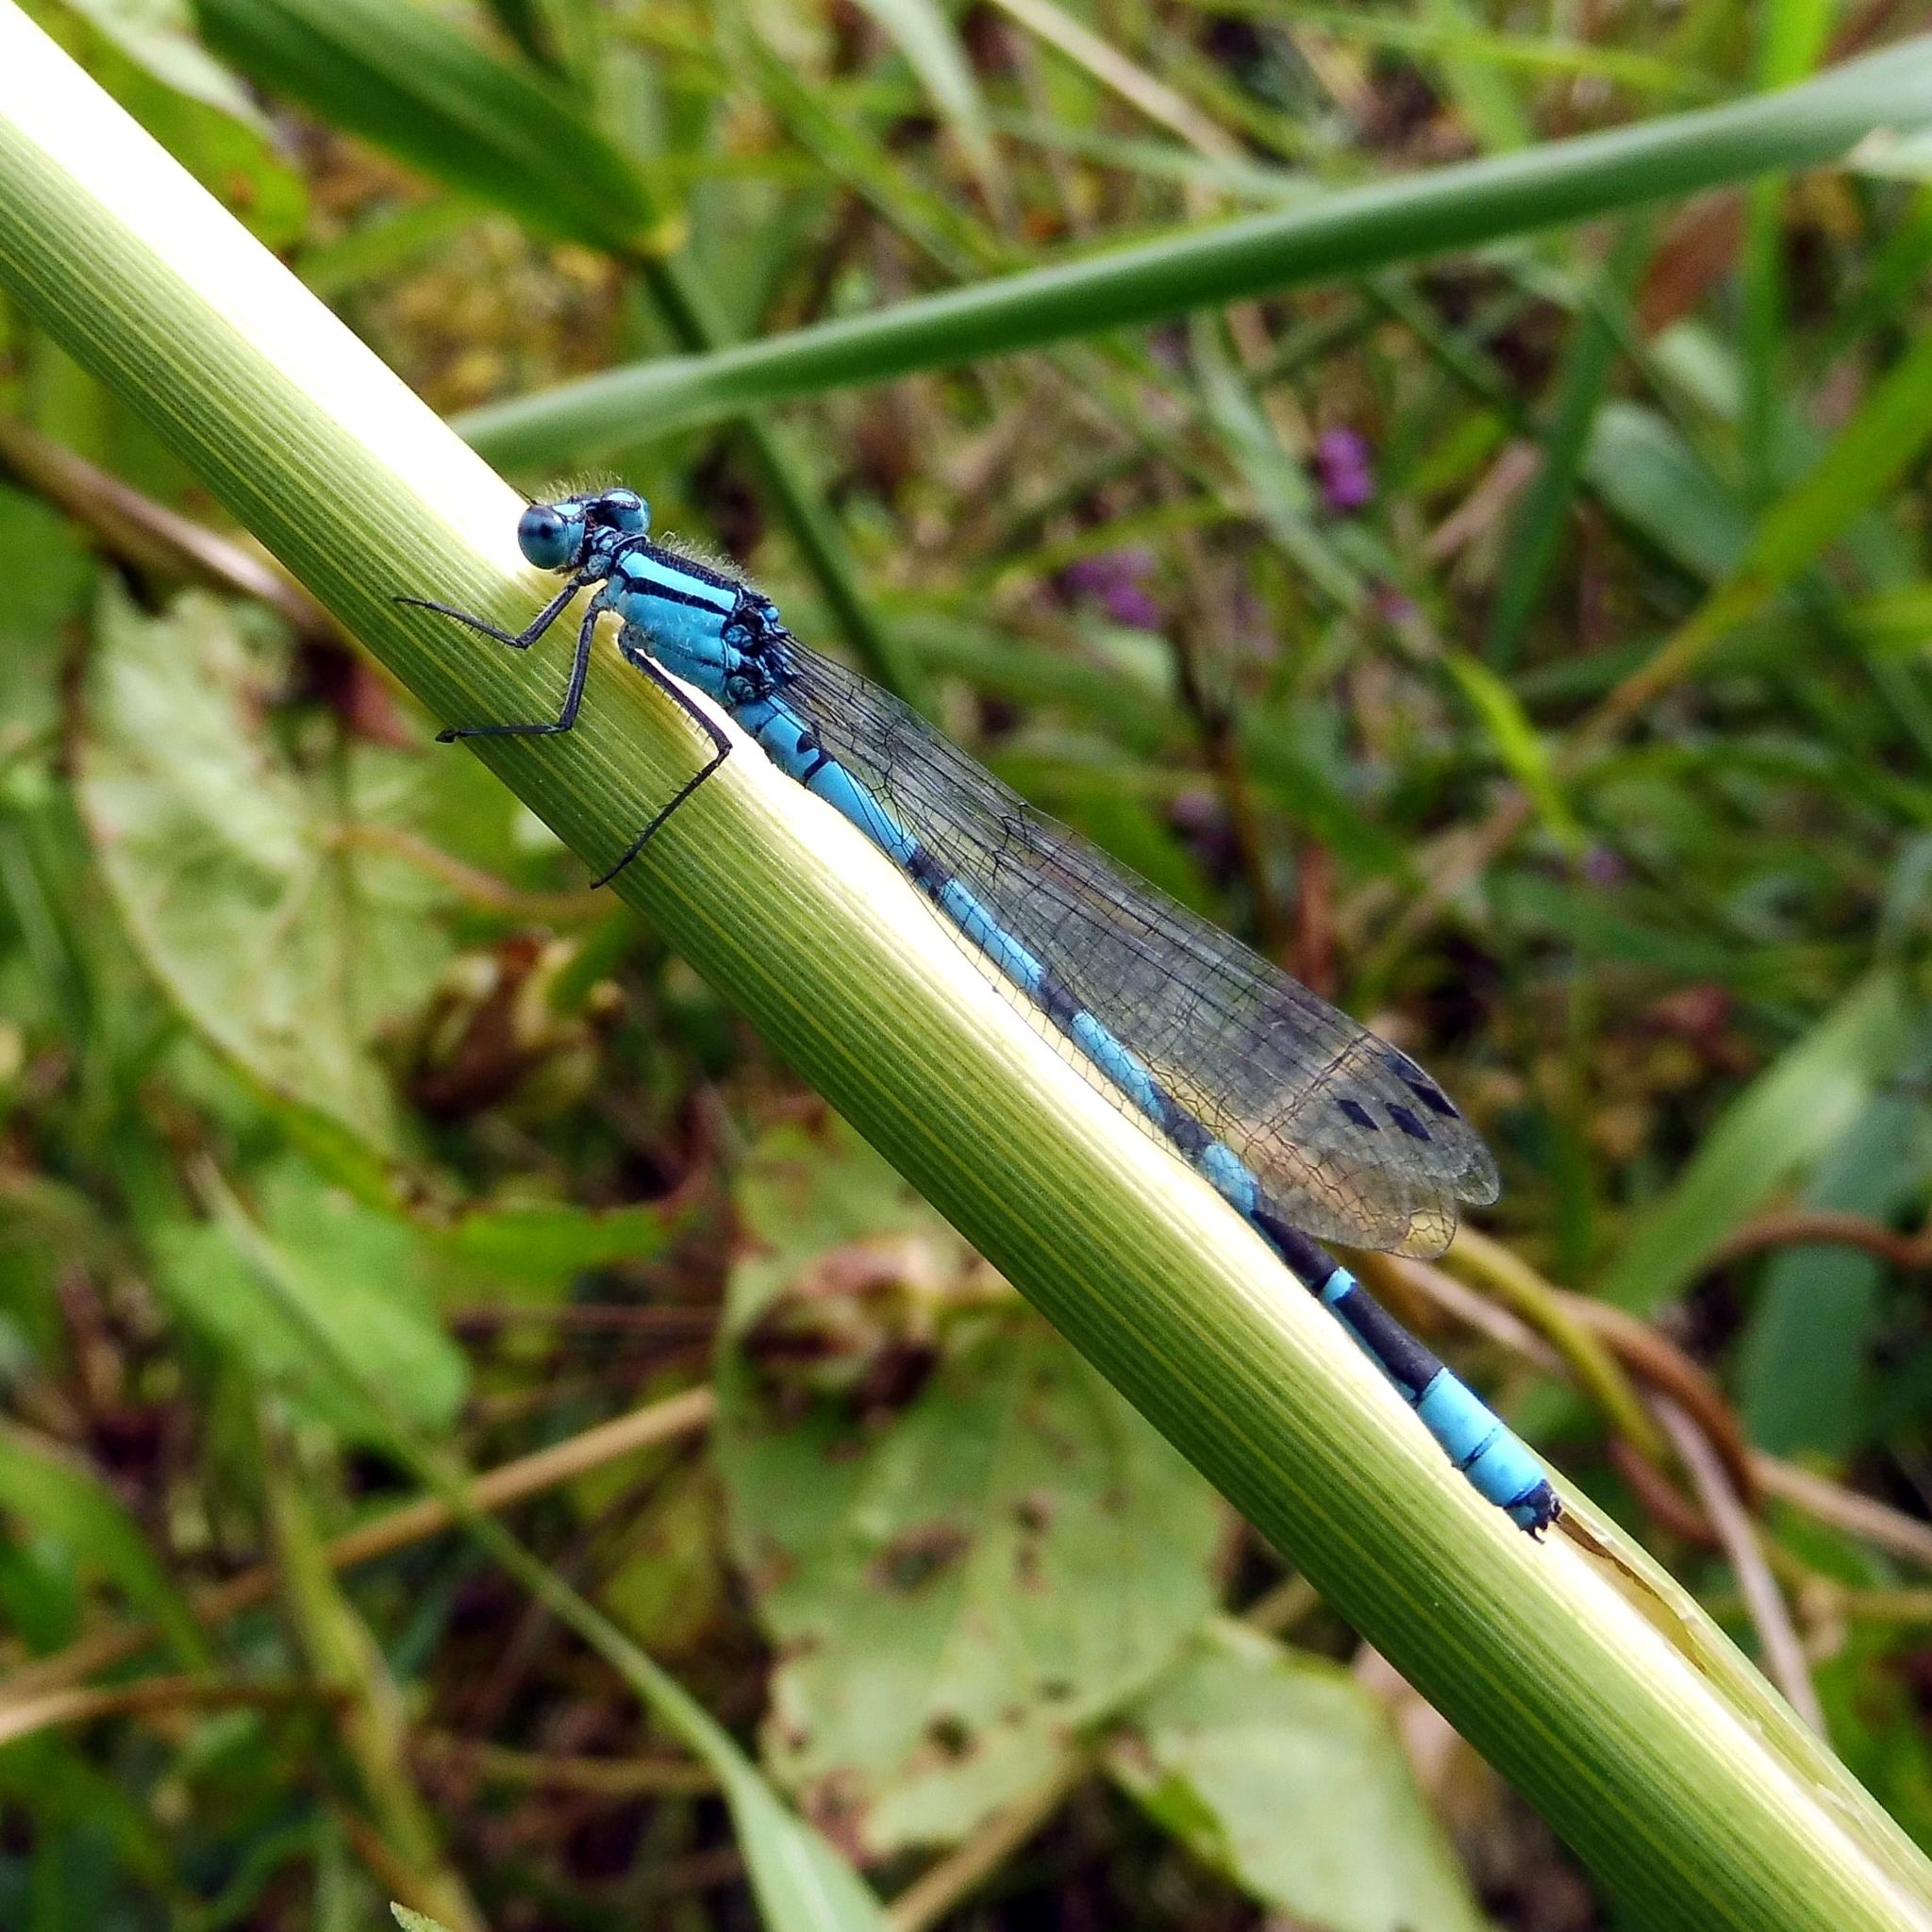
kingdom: Animalia
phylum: Arthropoda
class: Insecta
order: Odonata
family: Coenagrionidae
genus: Enallagma
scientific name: Enallagma cyathigerum
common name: Common blue damselfly
